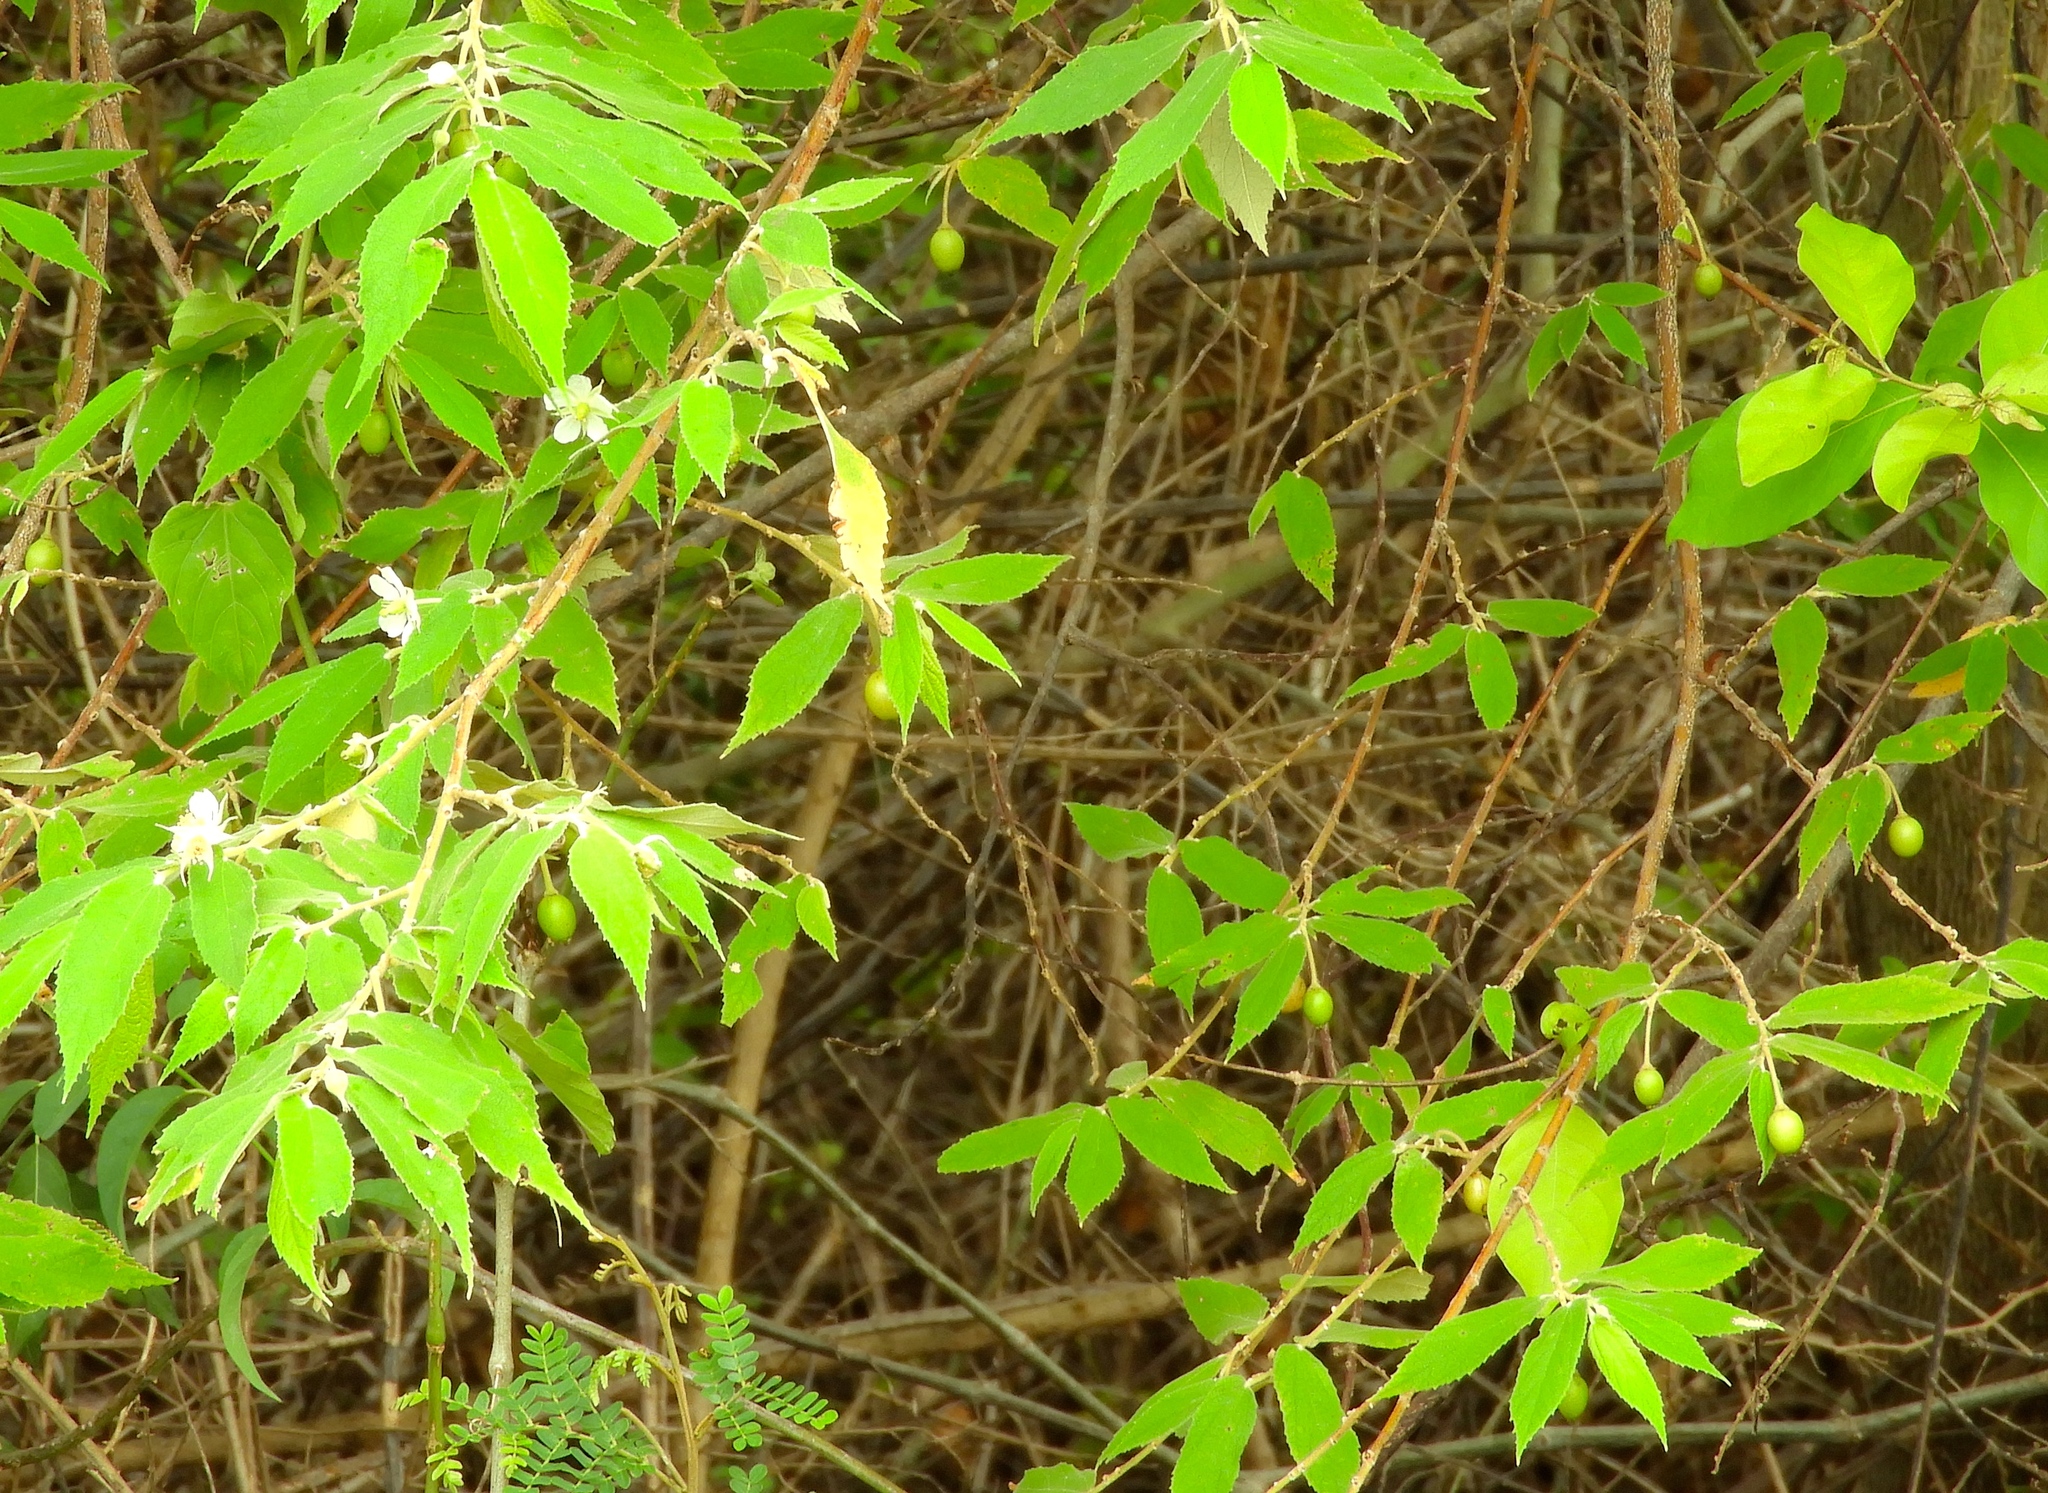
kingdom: Plantae
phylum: Tracheophyta
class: Magnoliopsida
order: Malvales
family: Muntingiaceae
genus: Muntingia
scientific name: Muntingia calabura
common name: Strawberrytree
